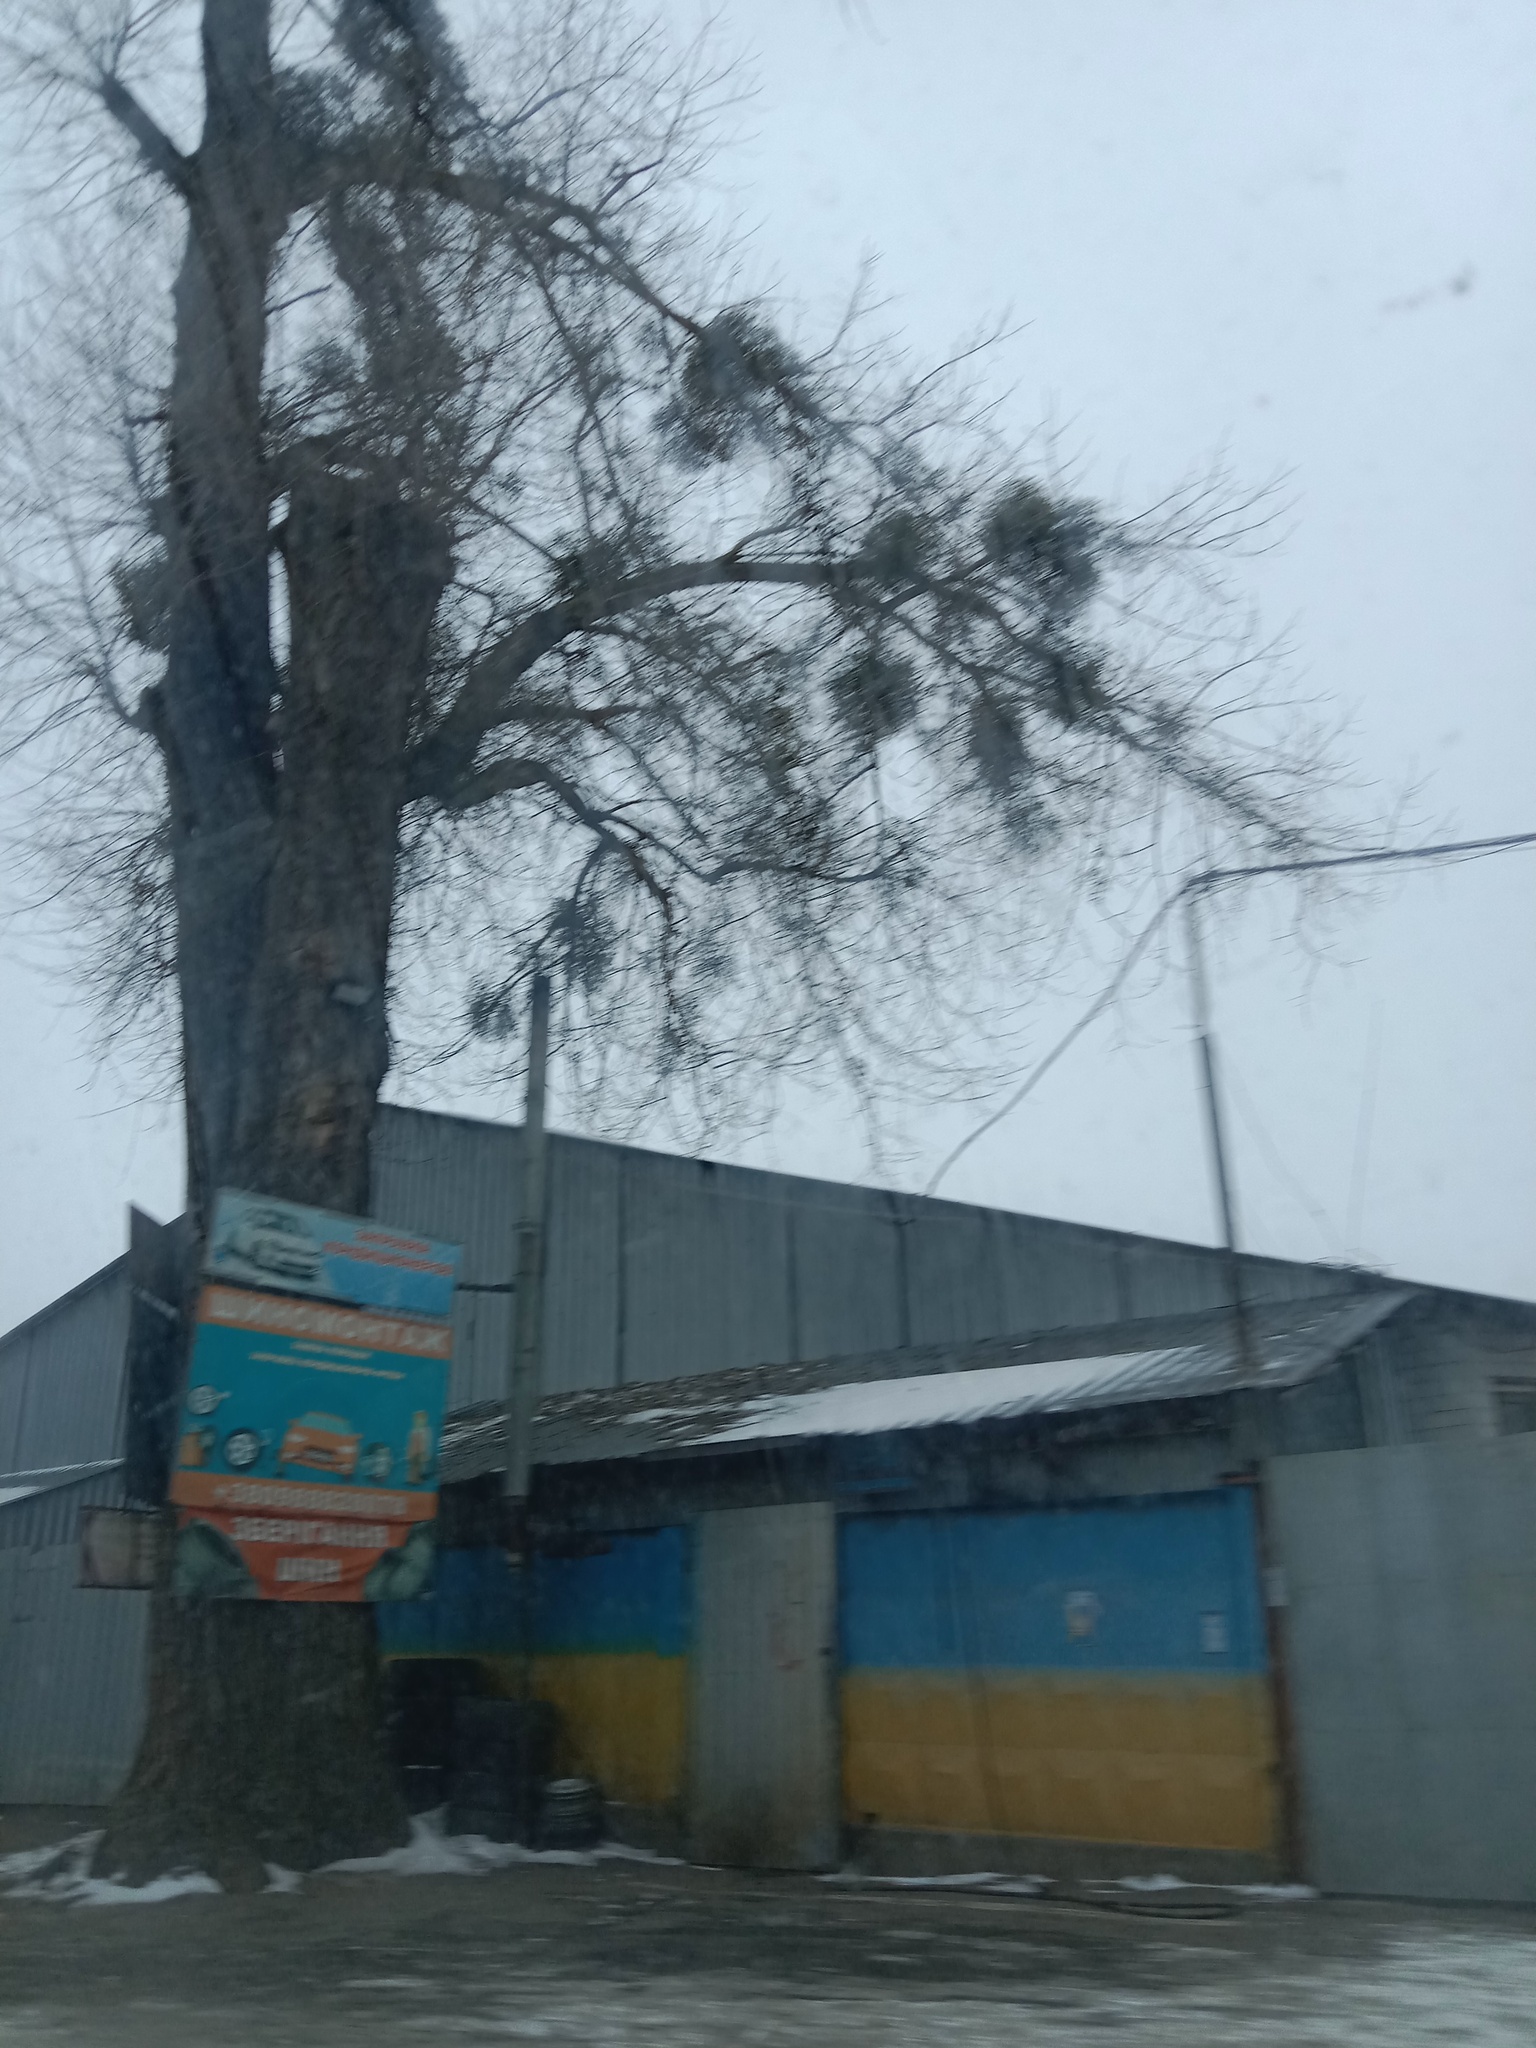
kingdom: Plantae
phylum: Tracheophyta
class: Magnoliopsida
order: Santalales
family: Viscaceae
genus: Viscum
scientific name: Viscum album
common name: Mistletoe
